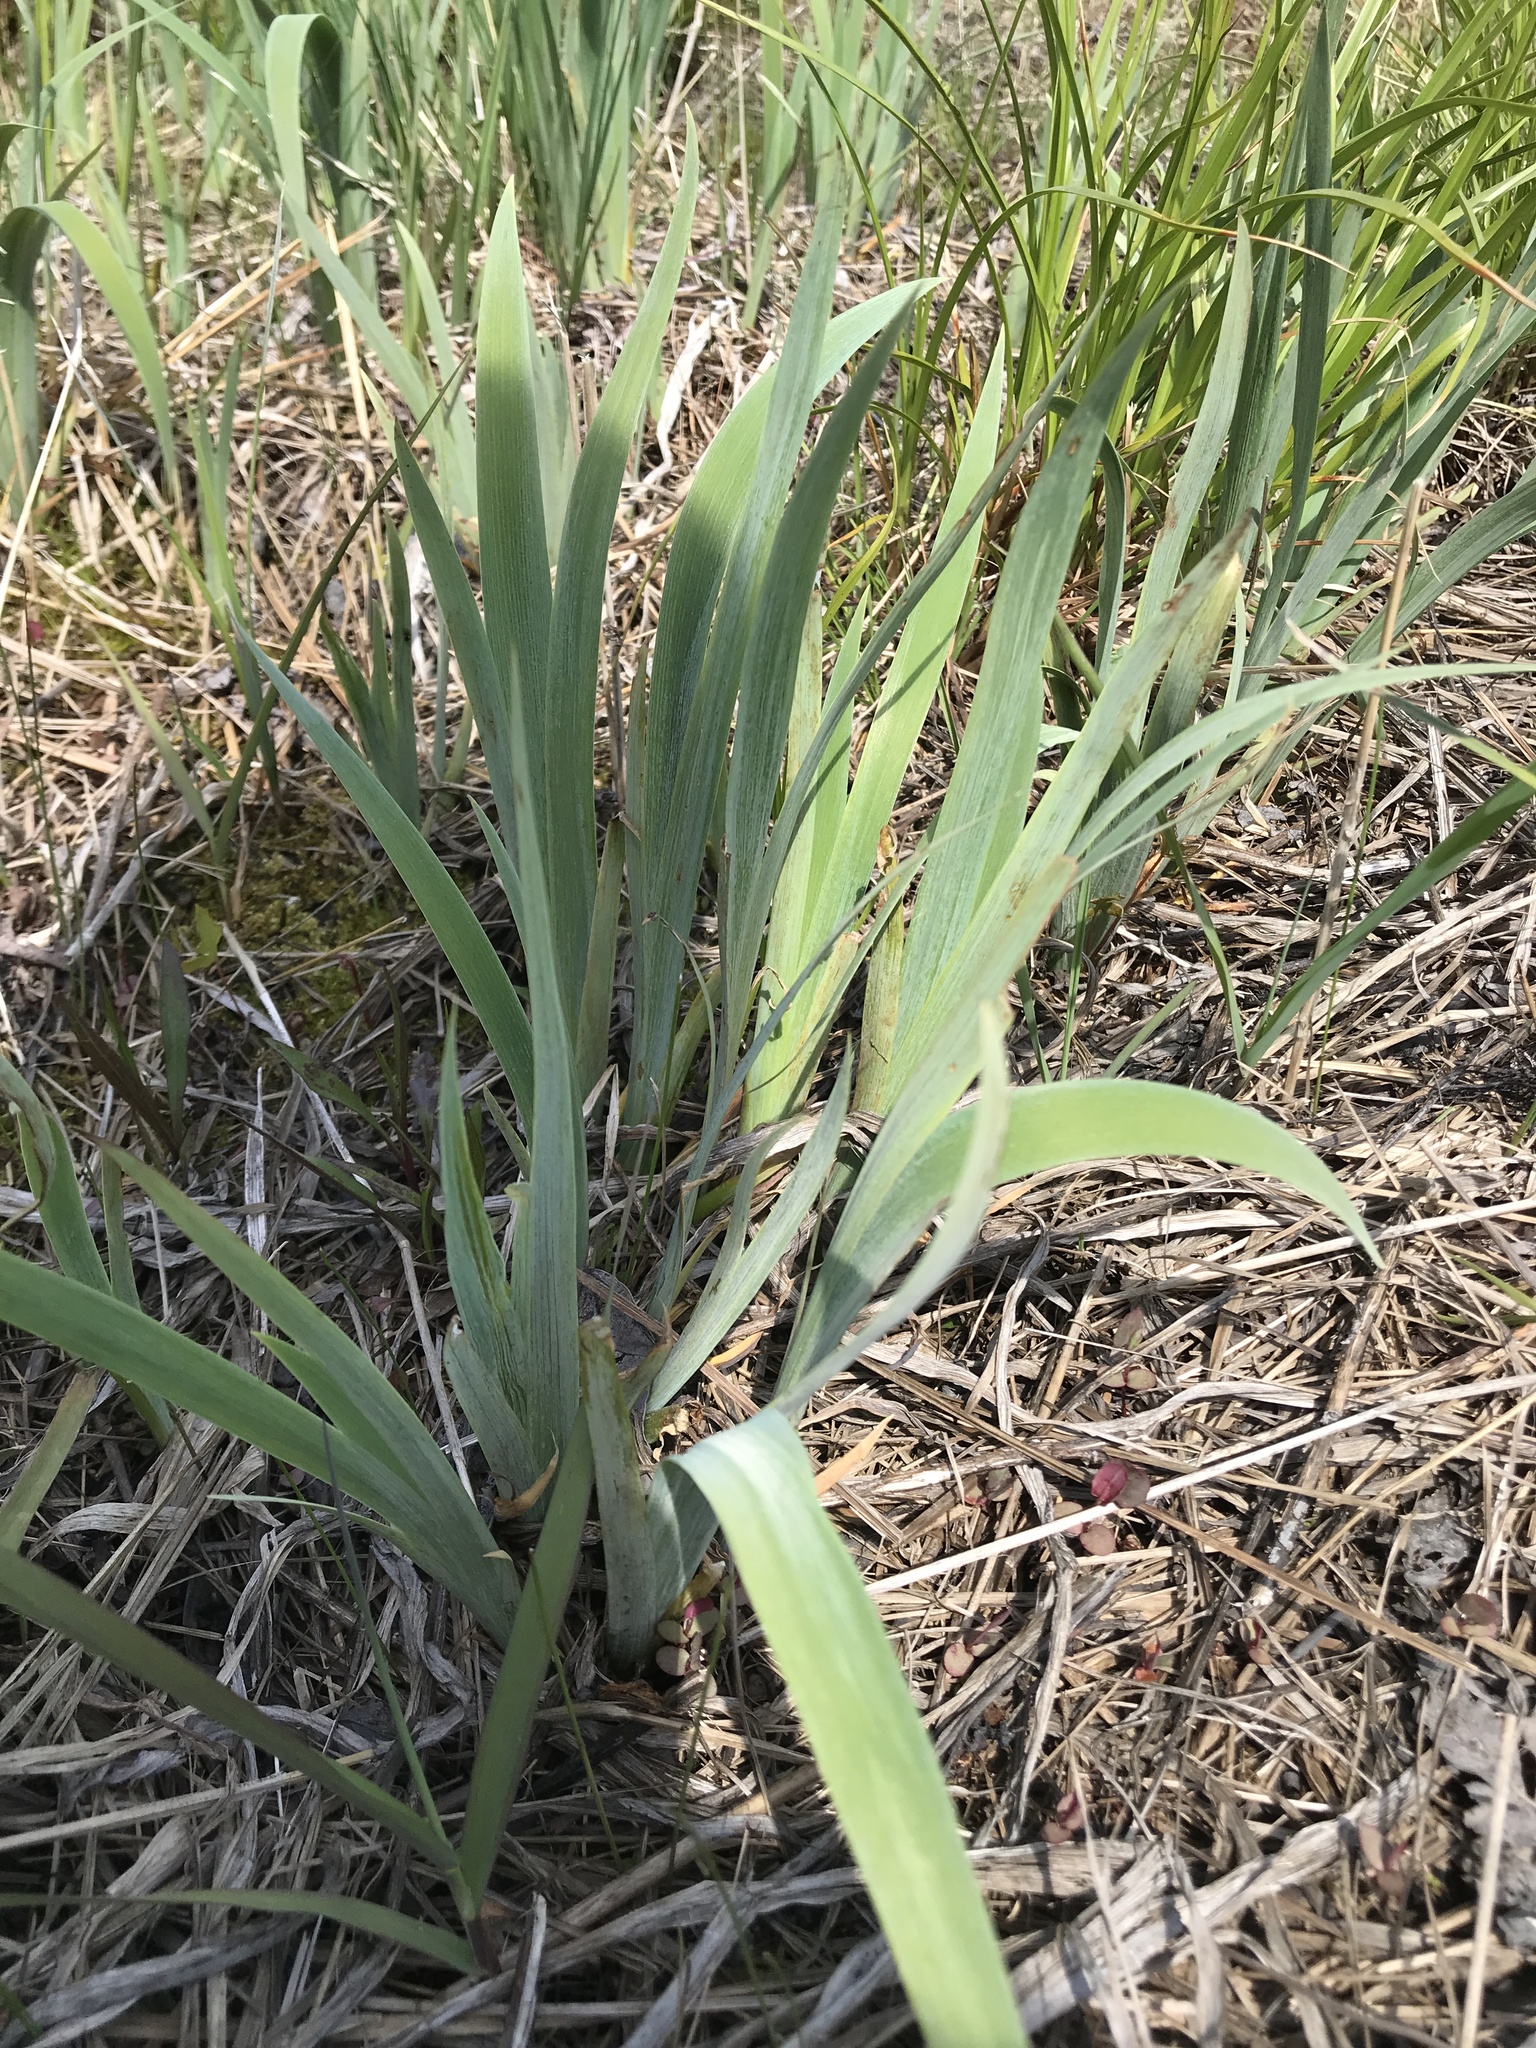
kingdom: Plantae
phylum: Tracheophyta
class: Liliopsida
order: Asparagales
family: Iridaceae
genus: Iris
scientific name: Iris versicolor
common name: Purple iris
